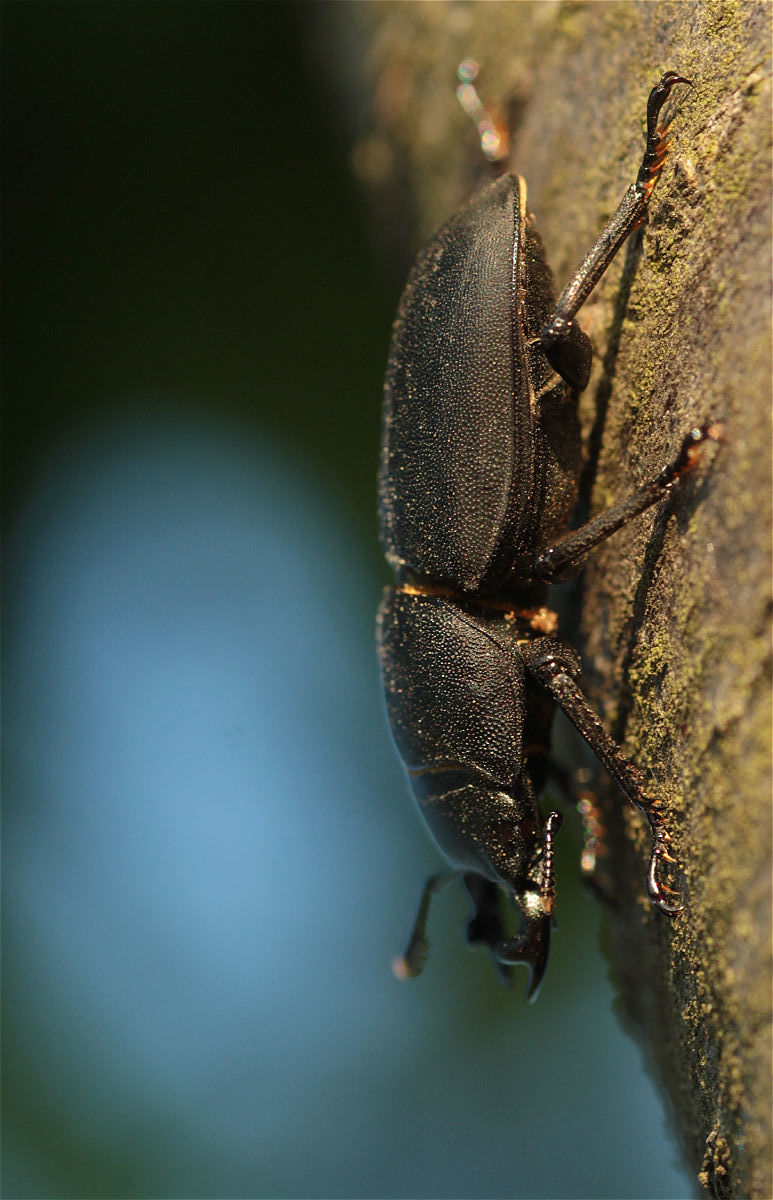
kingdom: Animalia
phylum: Arthropoda
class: Insecta
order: Coleoptera
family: Lucanidae
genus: Dorcus
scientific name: Dorcus parallelipipedus
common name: Lesser stag beetle
